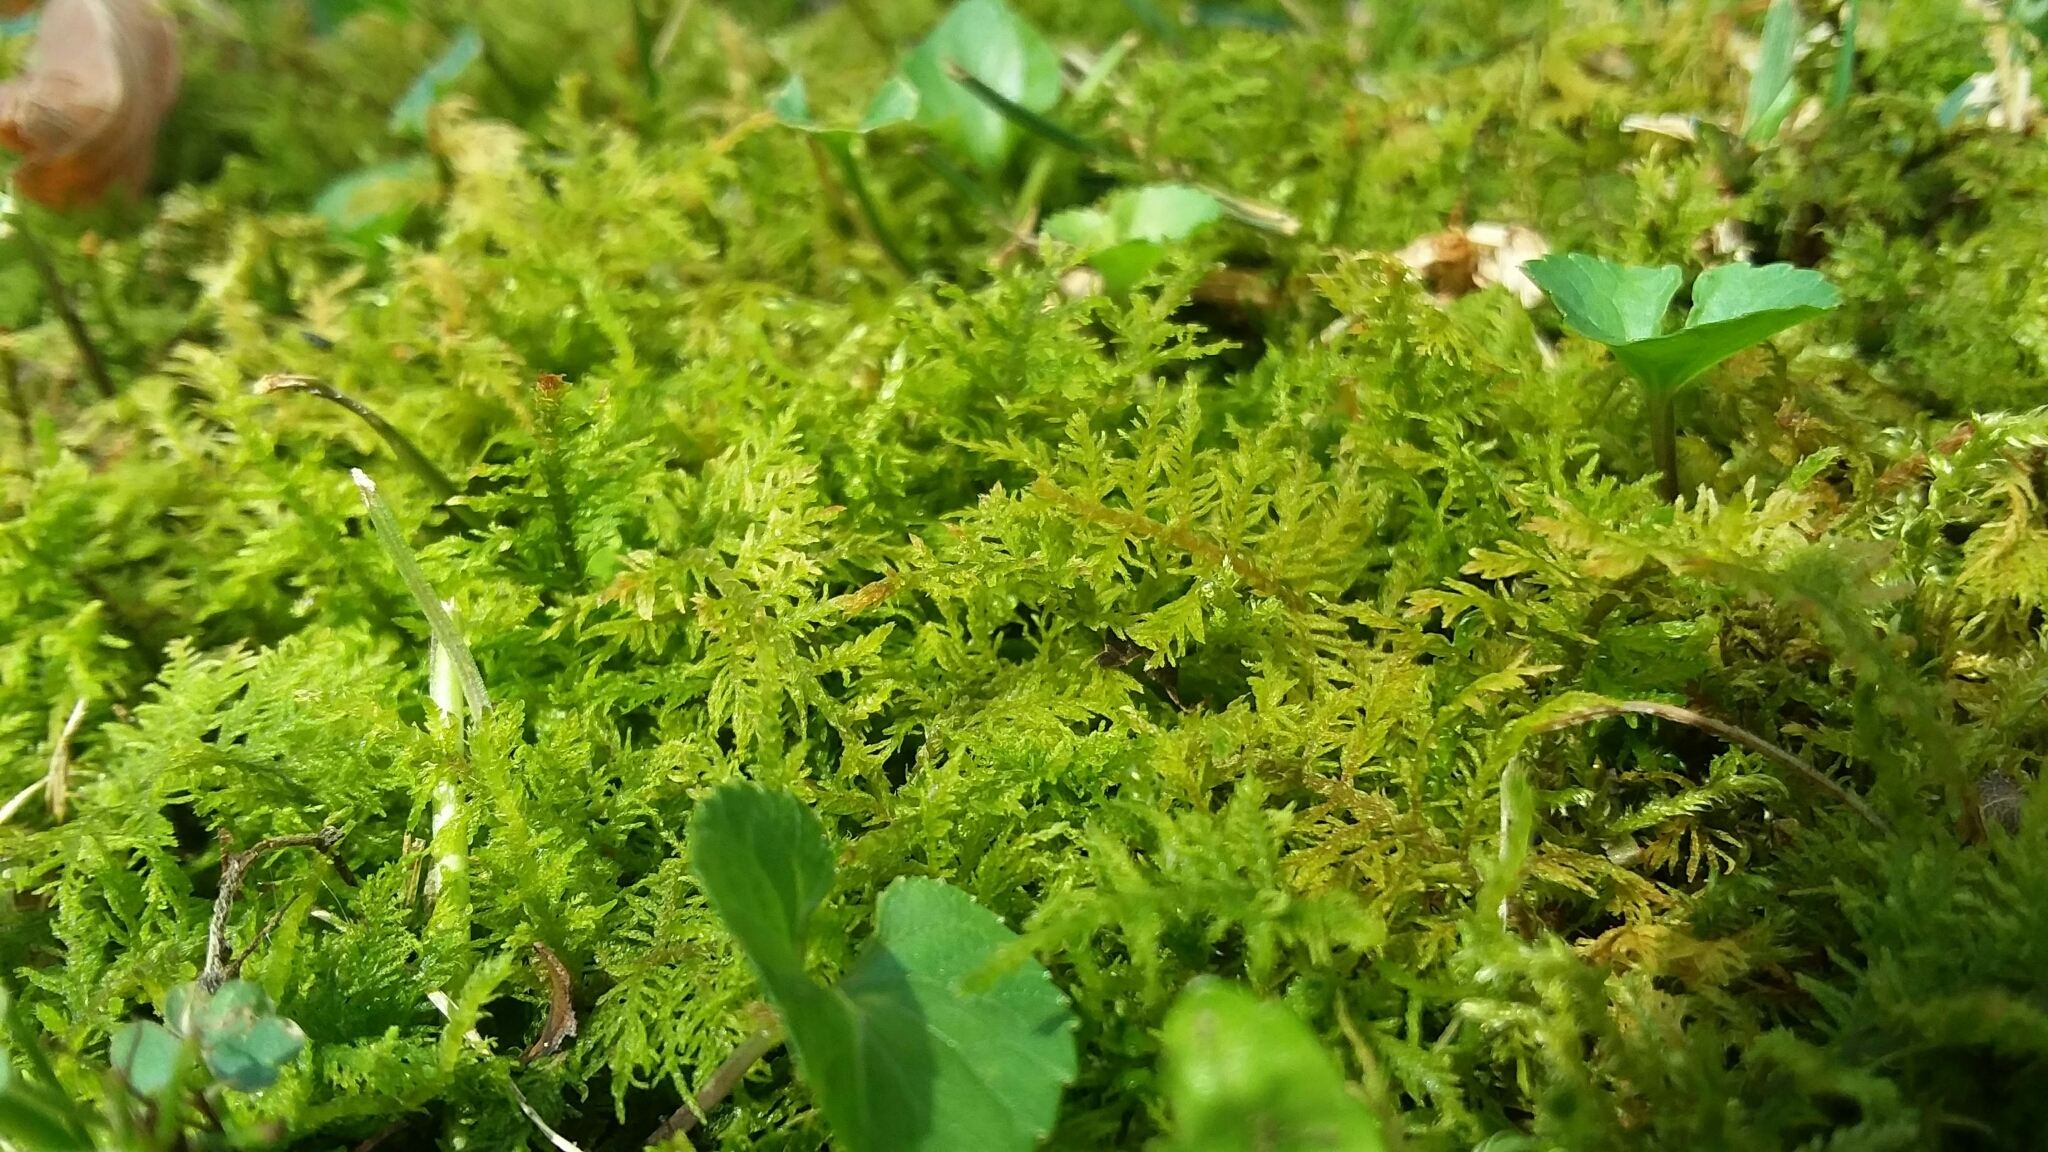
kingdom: Plantae
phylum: Bryophyta
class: Bryopsida
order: Hypnales
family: Thuidiaceae
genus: Thuidium
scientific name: Thuidium delicatulum
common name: Delicate fern moss
